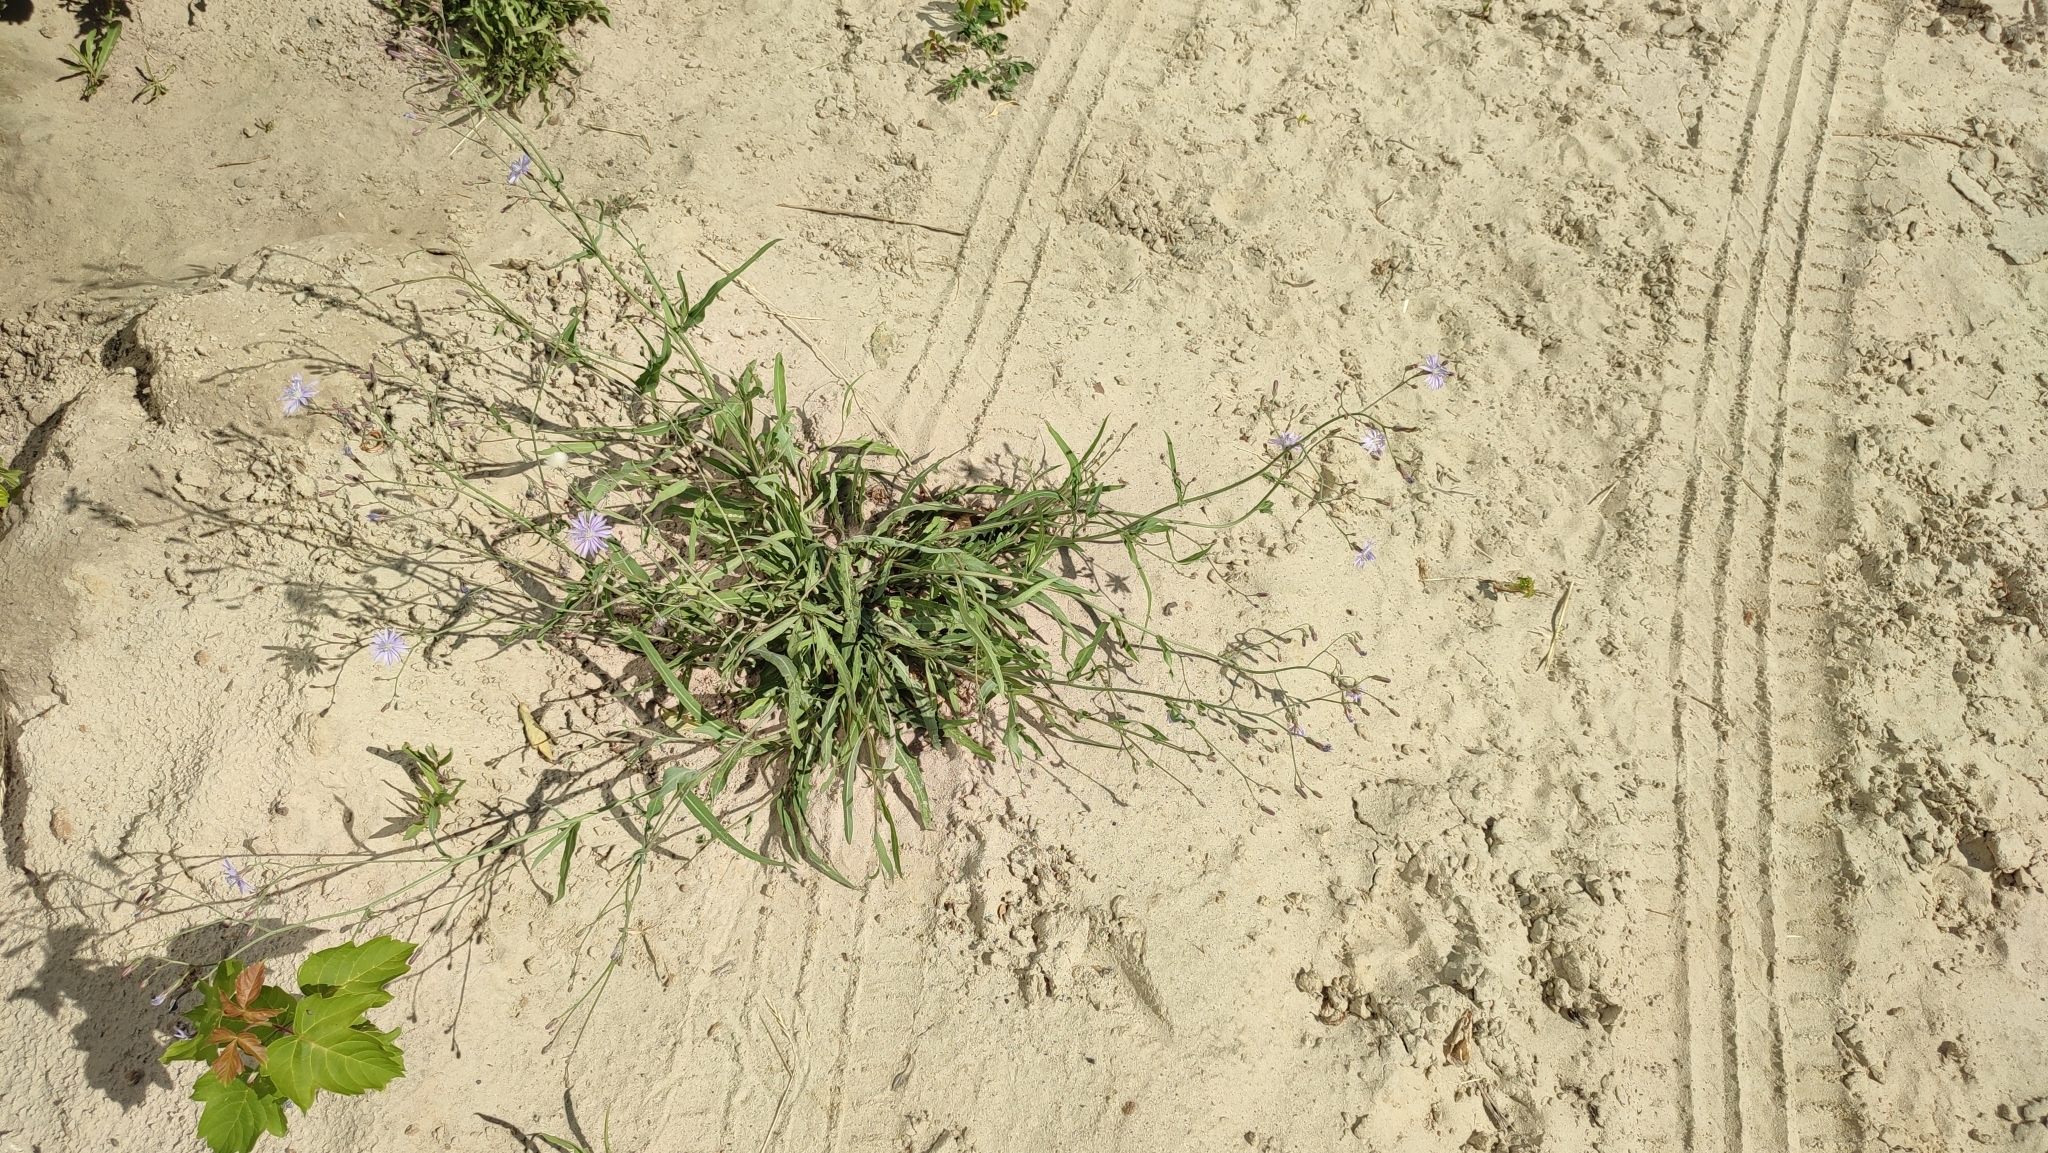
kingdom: Plantae
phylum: Tracheophyta
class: Magnoliopsida
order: Asterales
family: Asteraceae
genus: Lactuca
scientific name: Lactuca tatarica
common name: Blue lettuce
